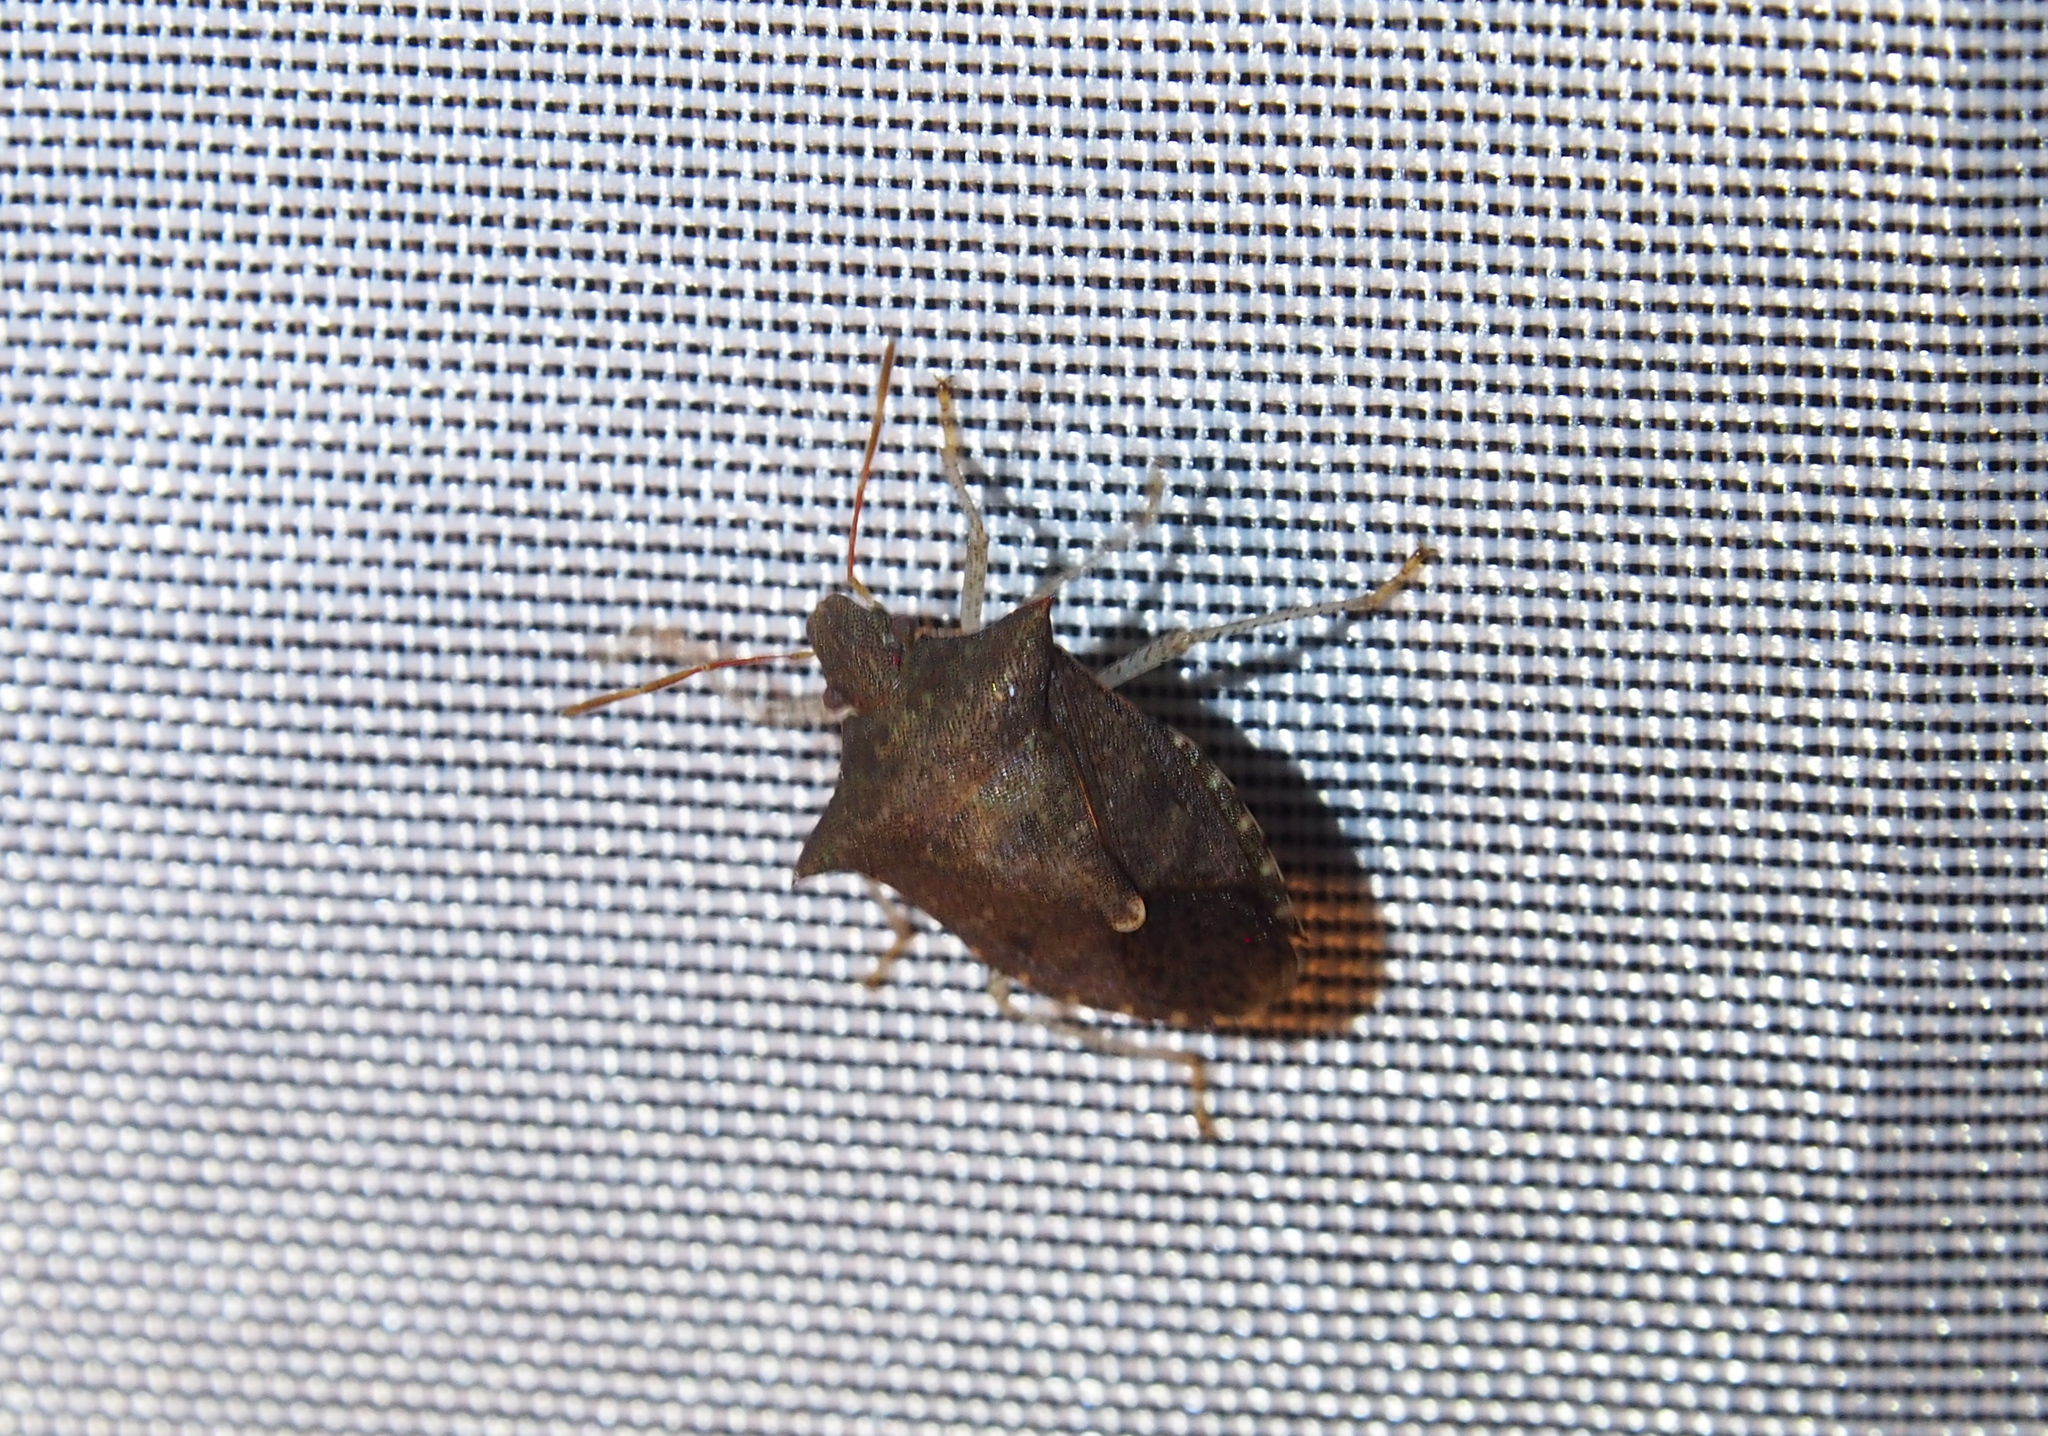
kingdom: Animalia
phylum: Arthropoda
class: Insecta
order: Hemiptera
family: Pentatomidae
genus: Euschistus
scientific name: Euschistus tristigmus
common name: Dusky stink bug
